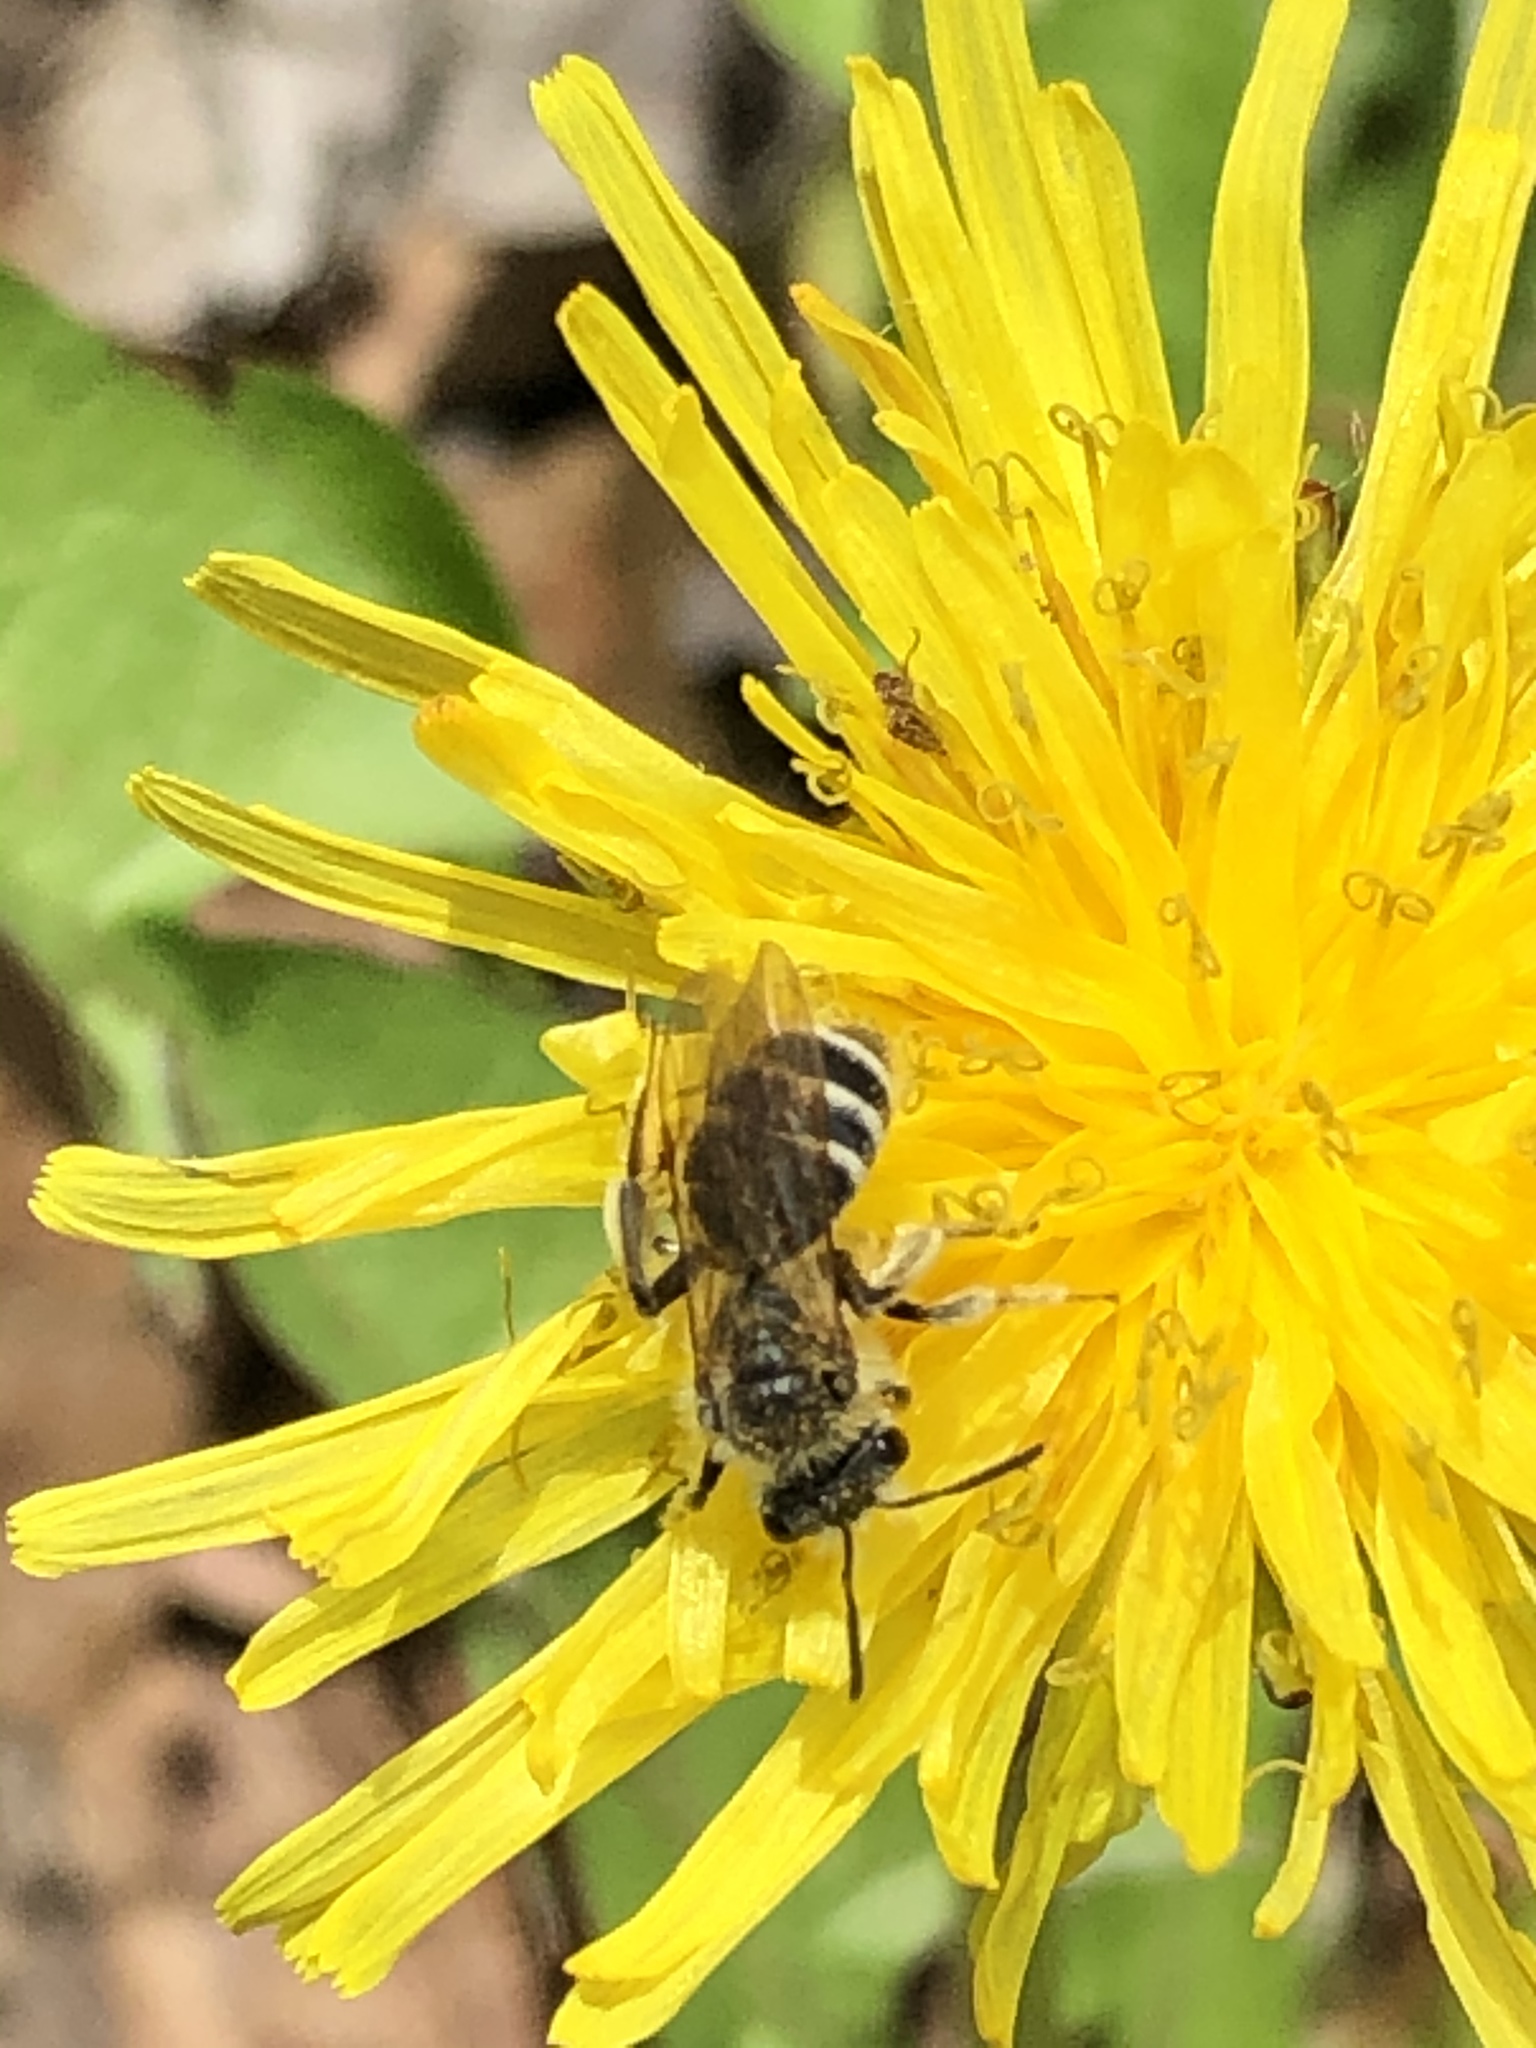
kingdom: Animalia
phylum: Arthropoda
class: Insecta
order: Hymenoptera
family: Andrenidae
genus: Andrena
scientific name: Andrena nasonii
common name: Nason's mining bee
